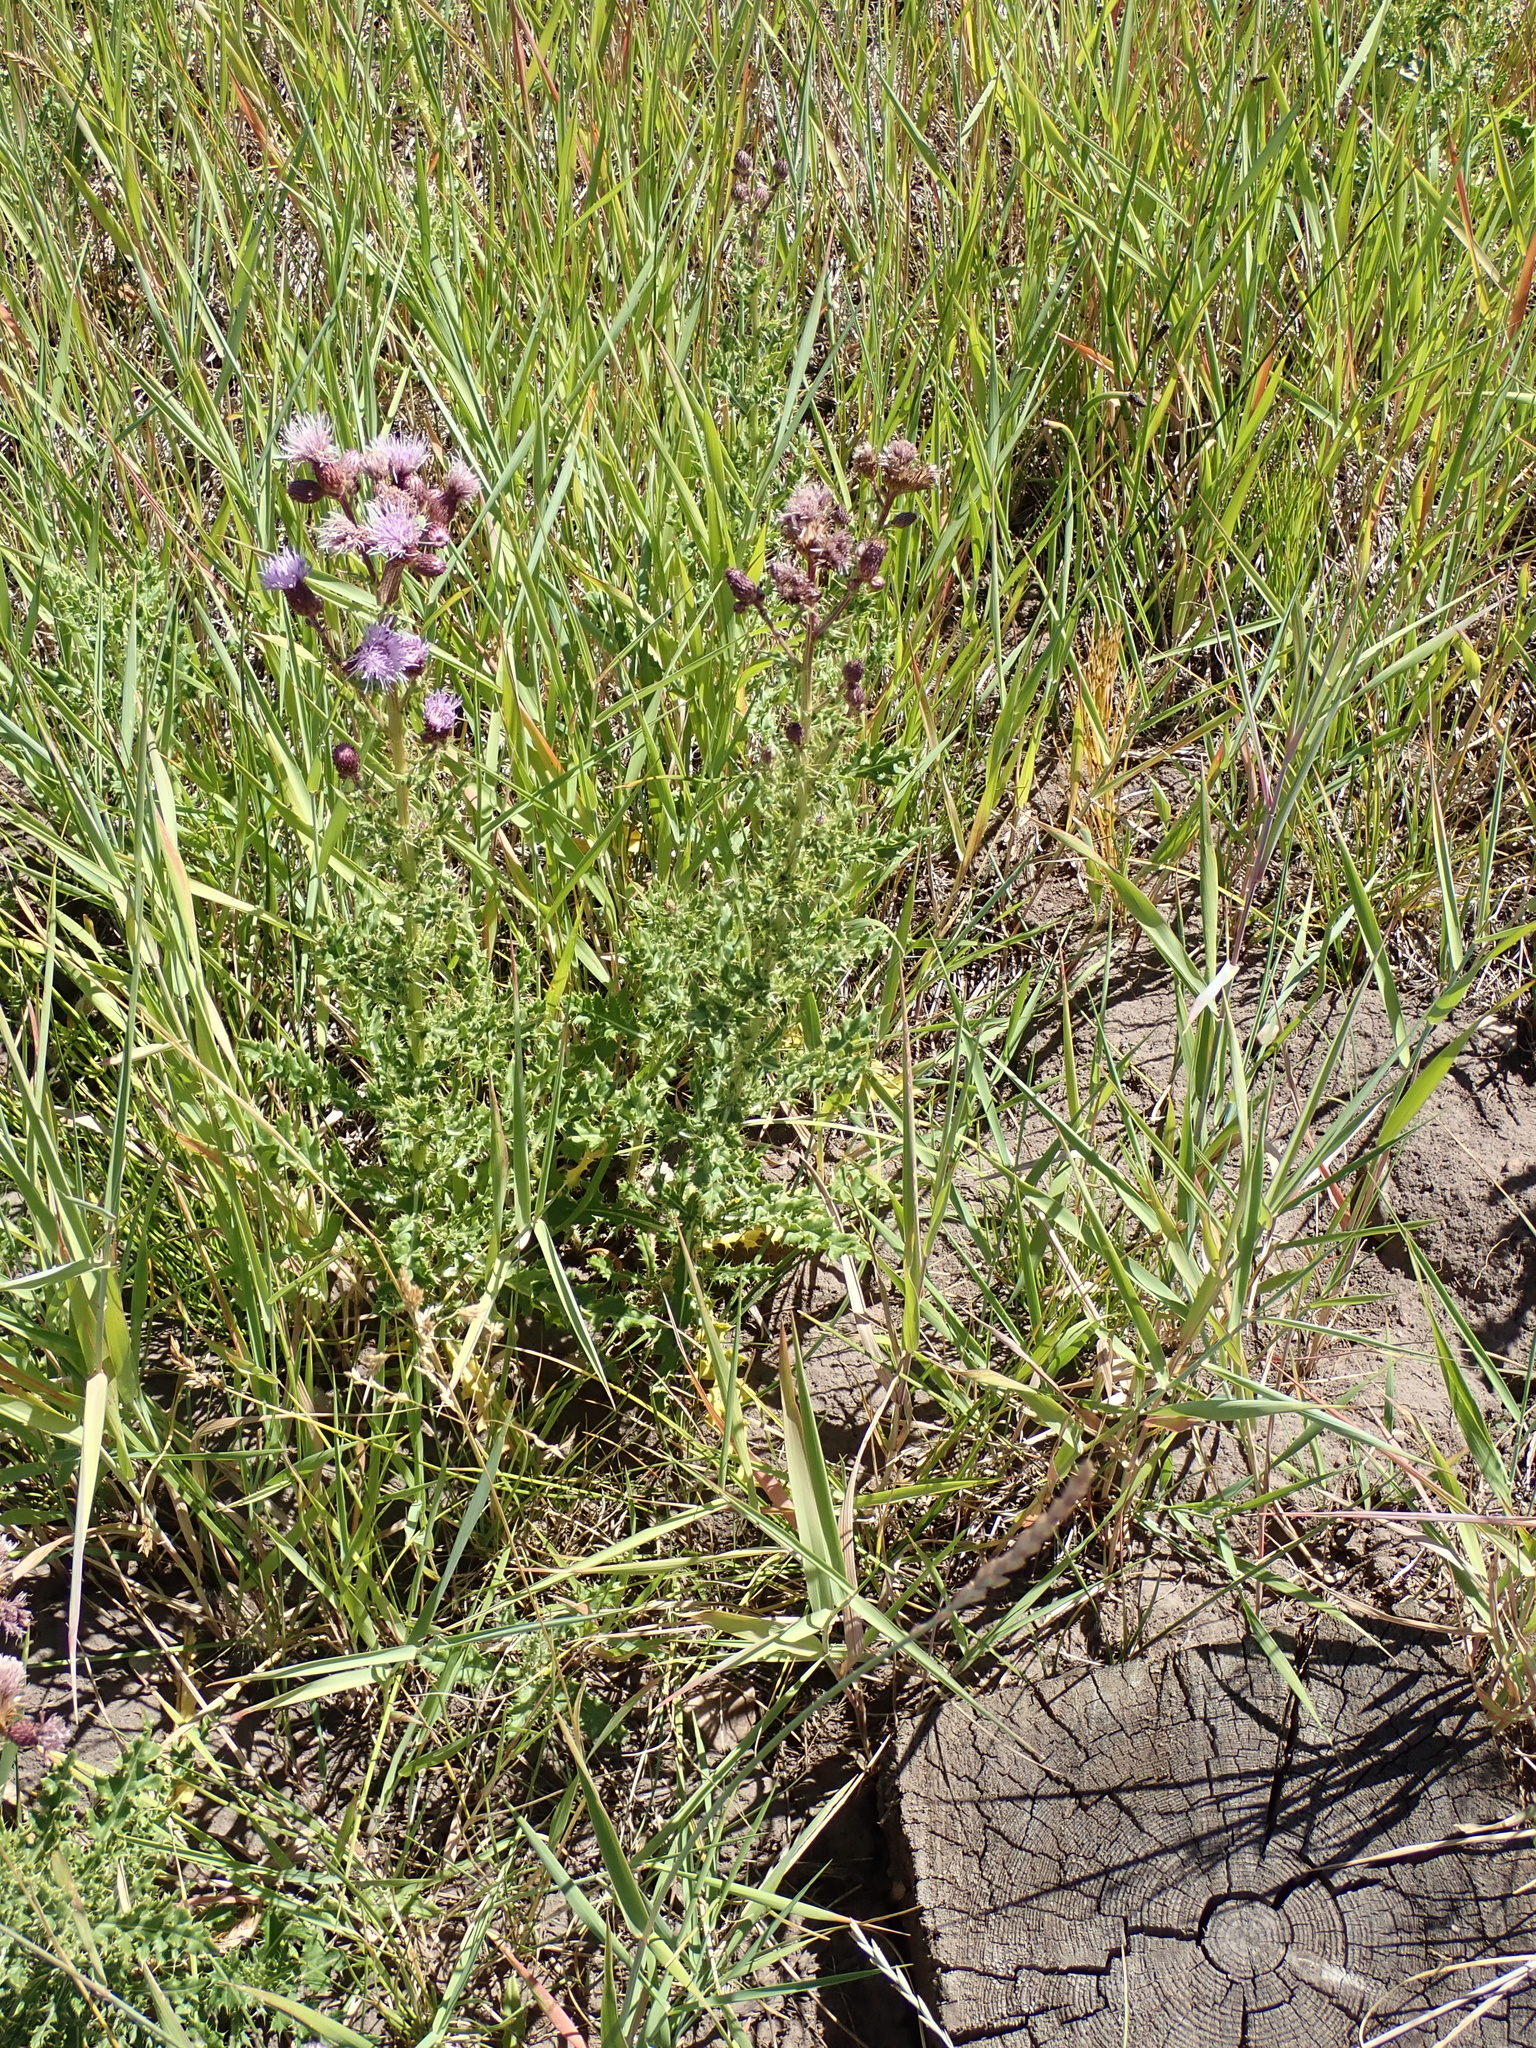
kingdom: Plantae
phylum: Tracheophyta
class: Magnoliopsida
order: Asterales
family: Asteraceae
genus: Cirsium
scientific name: Cirsium arvense
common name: Creeping thistle
